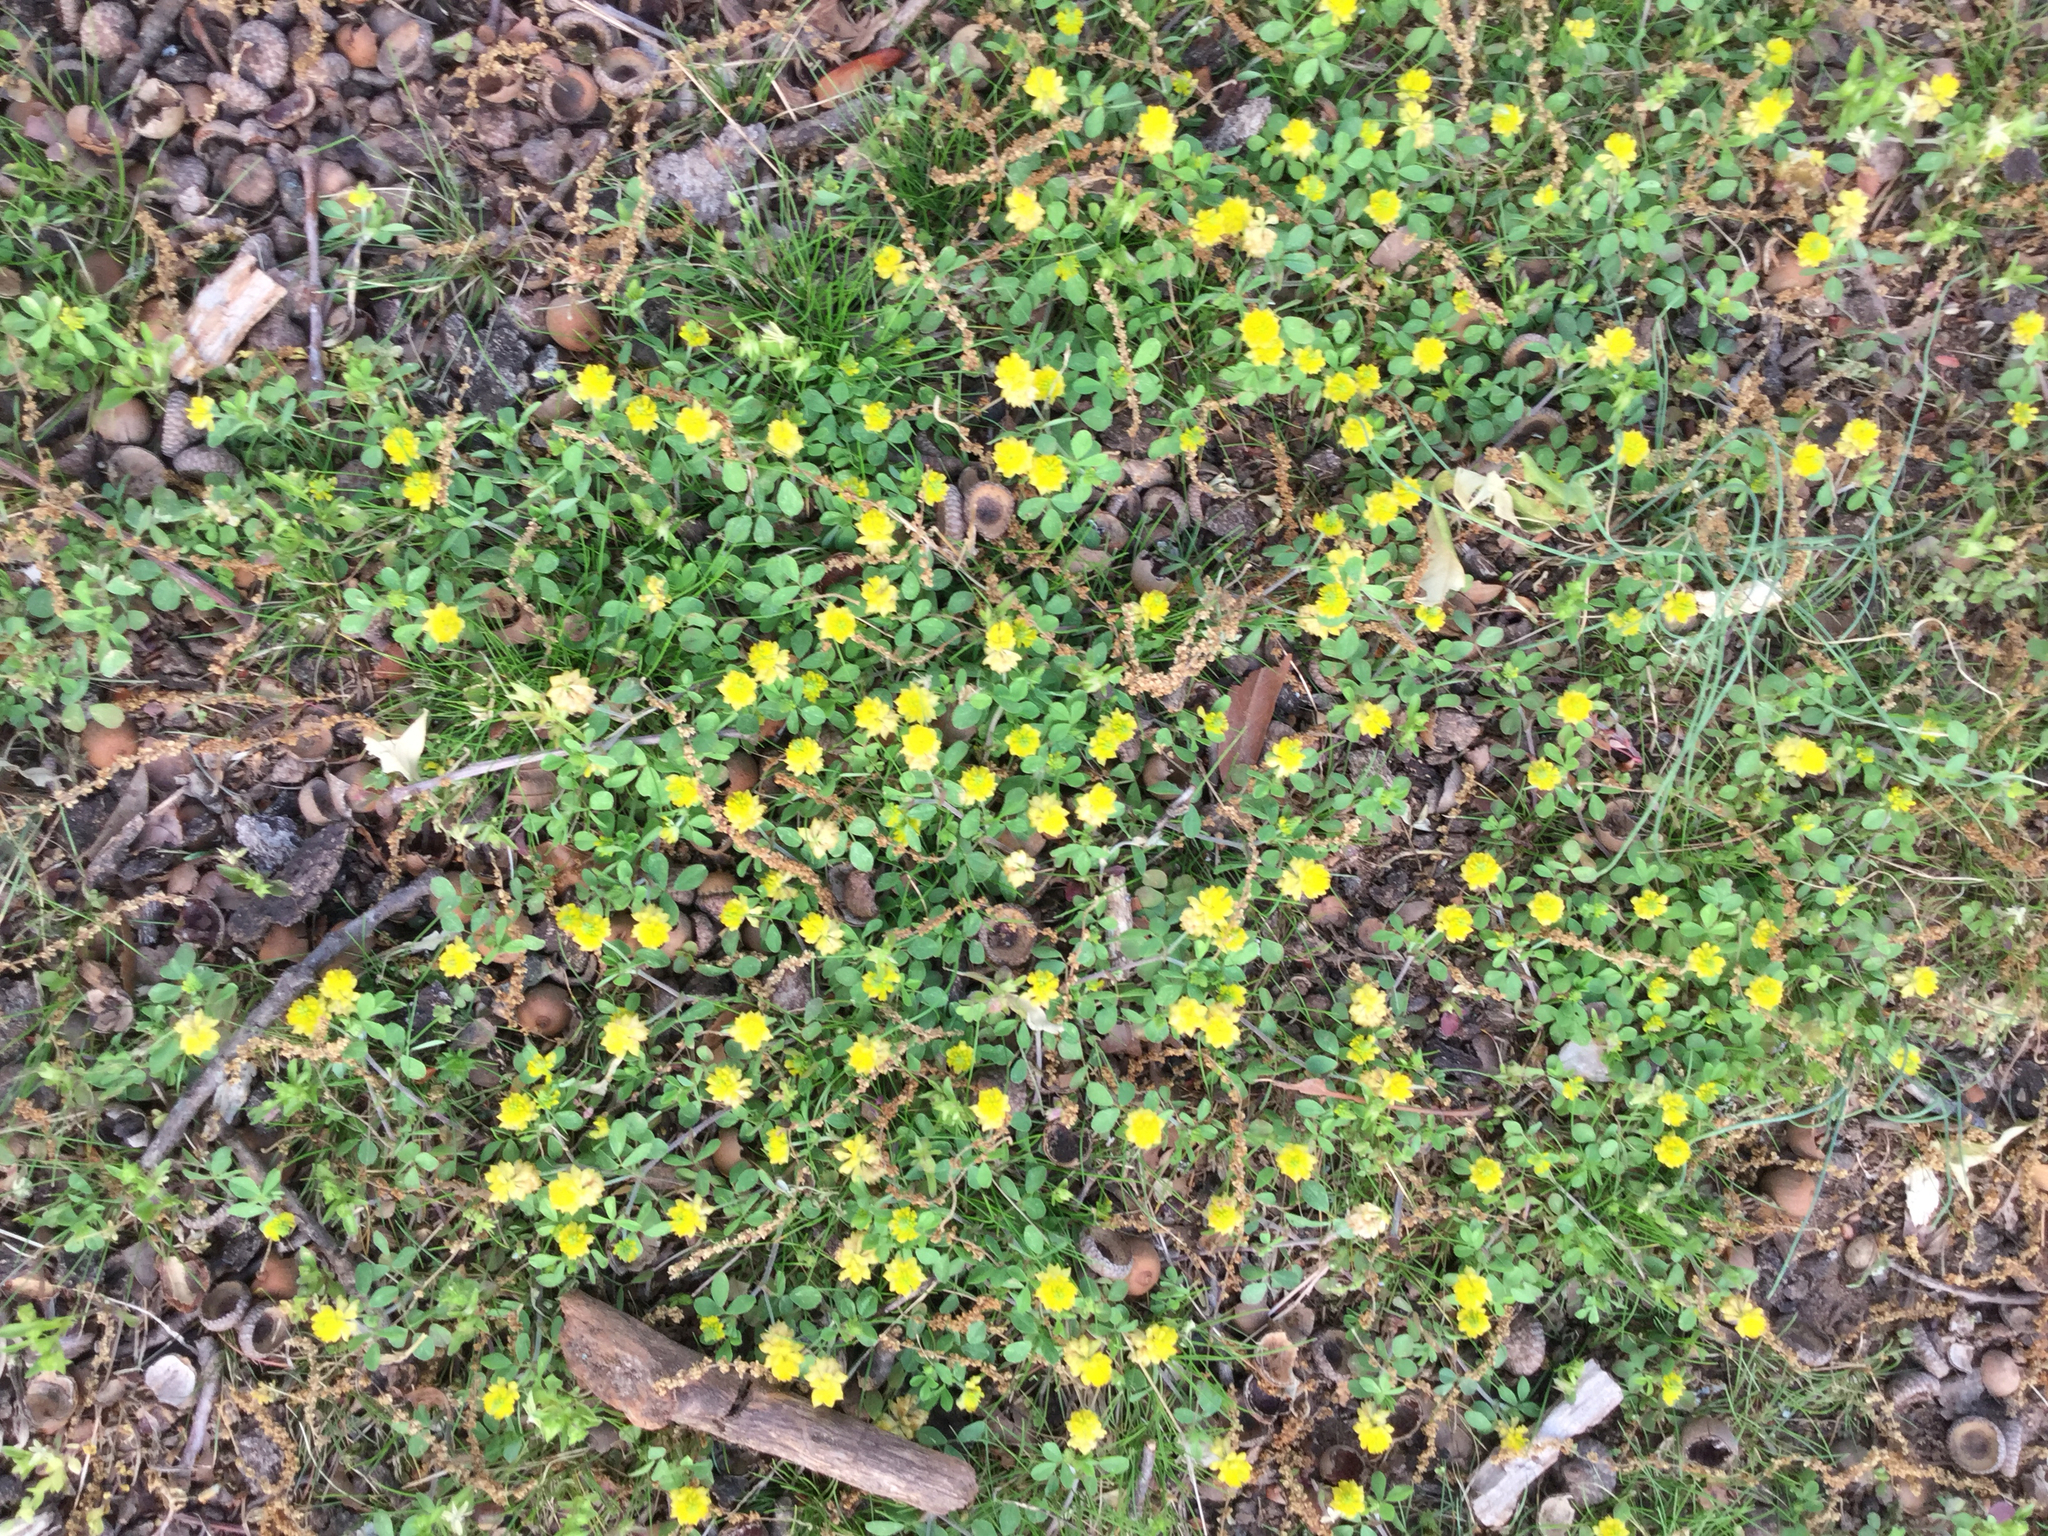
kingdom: Plantae
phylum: Tracheophyta
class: Magnoliopsida
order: Fabales
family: Fabaceae
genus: Trifolium
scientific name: Trifolium campestre
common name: Field clover
